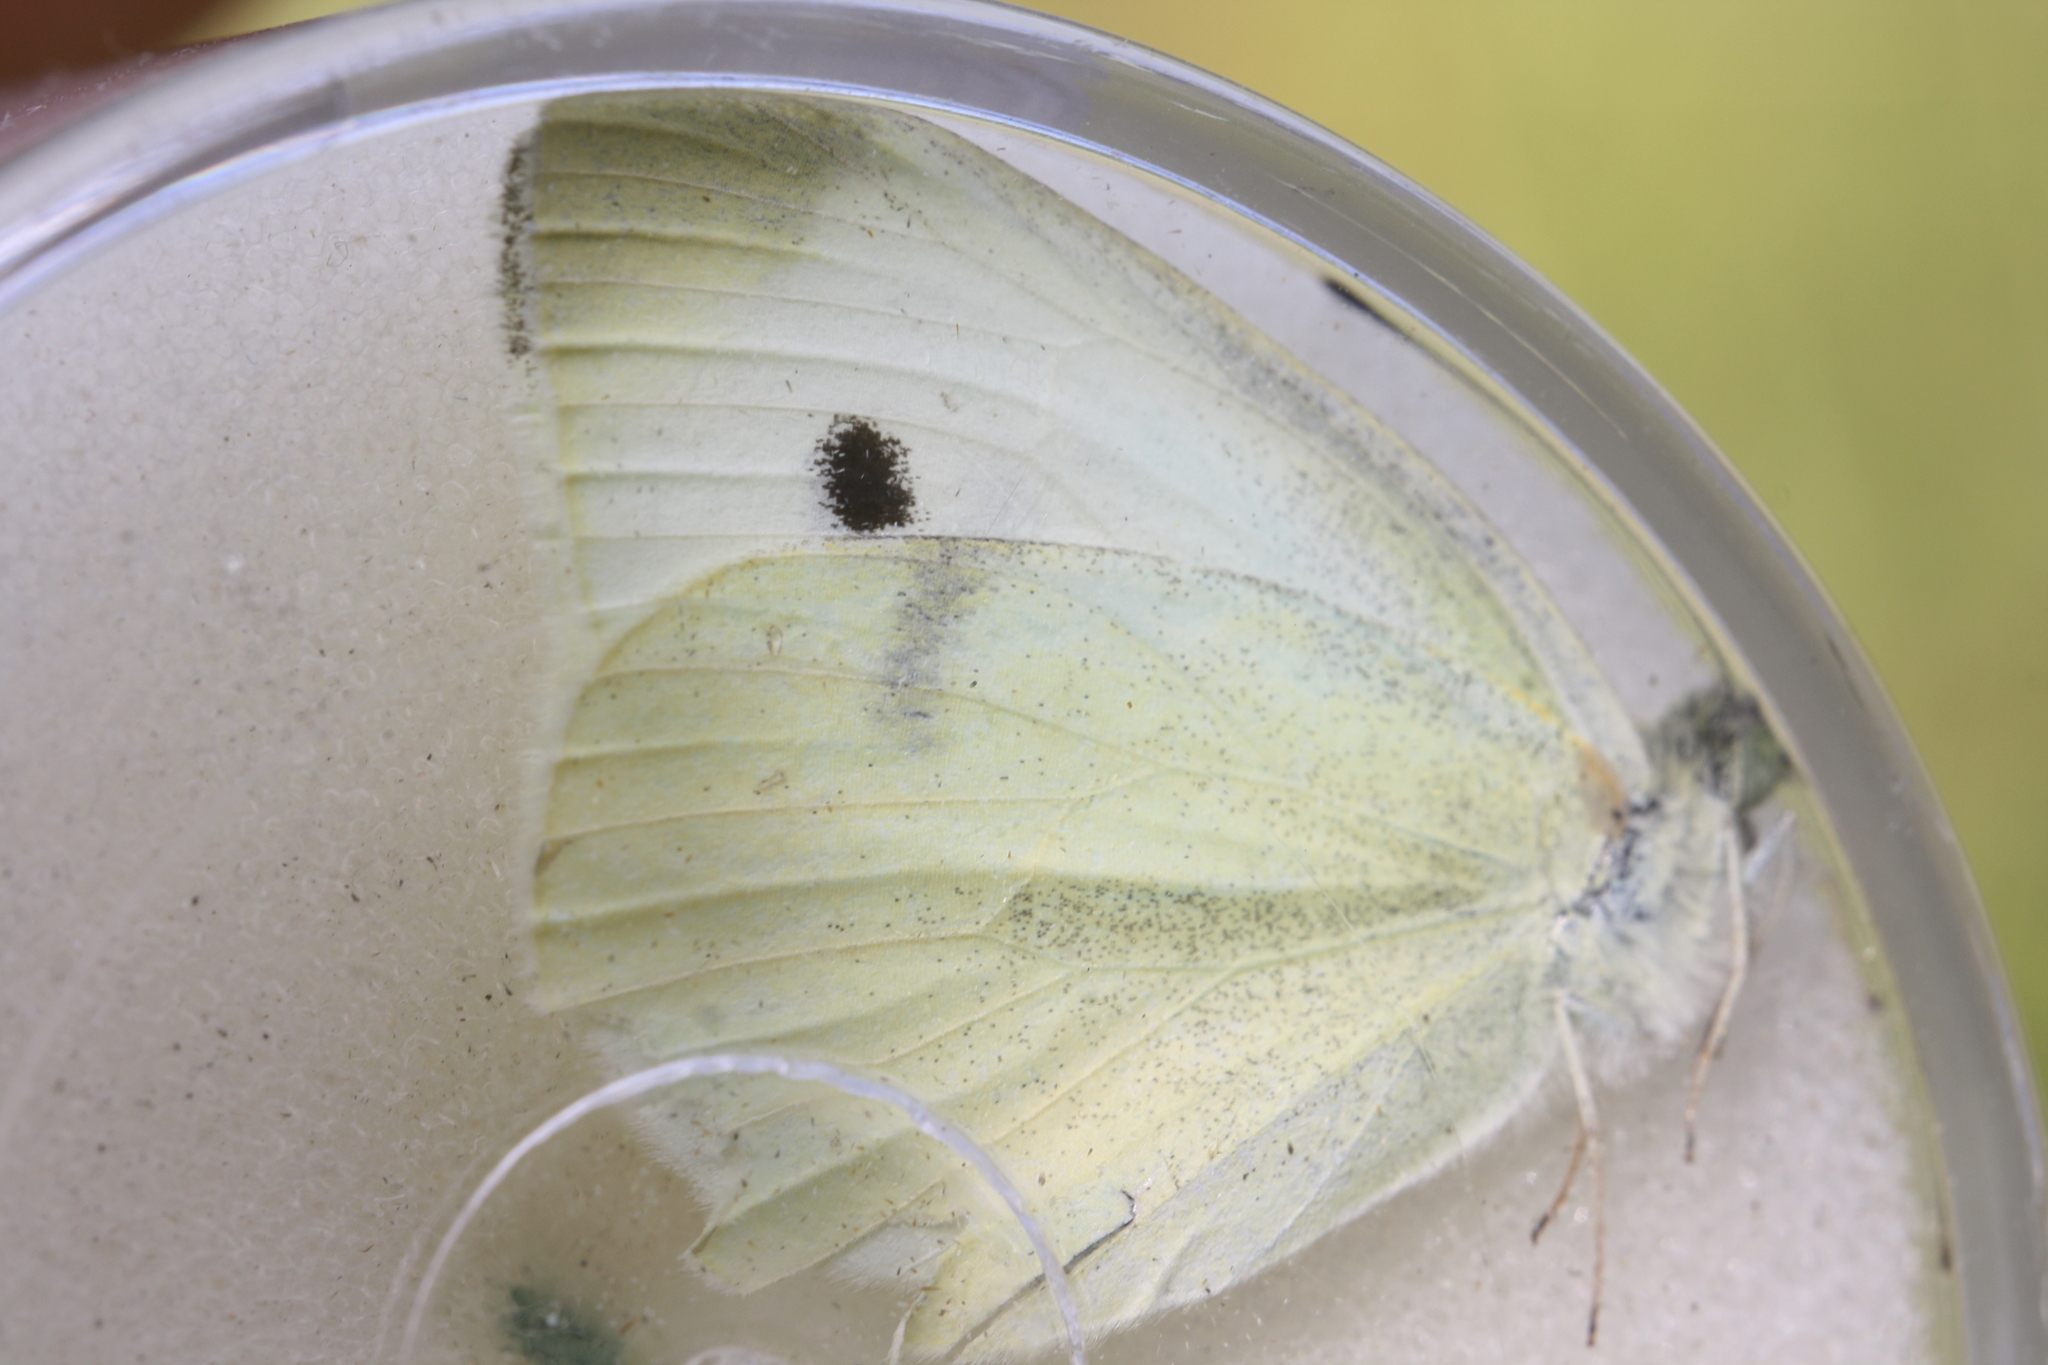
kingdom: Animalia
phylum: Arthropoda
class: Insecta
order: Lepidoptera
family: Pieridae
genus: Pieris
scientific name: Pieris rapae
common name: Small white
